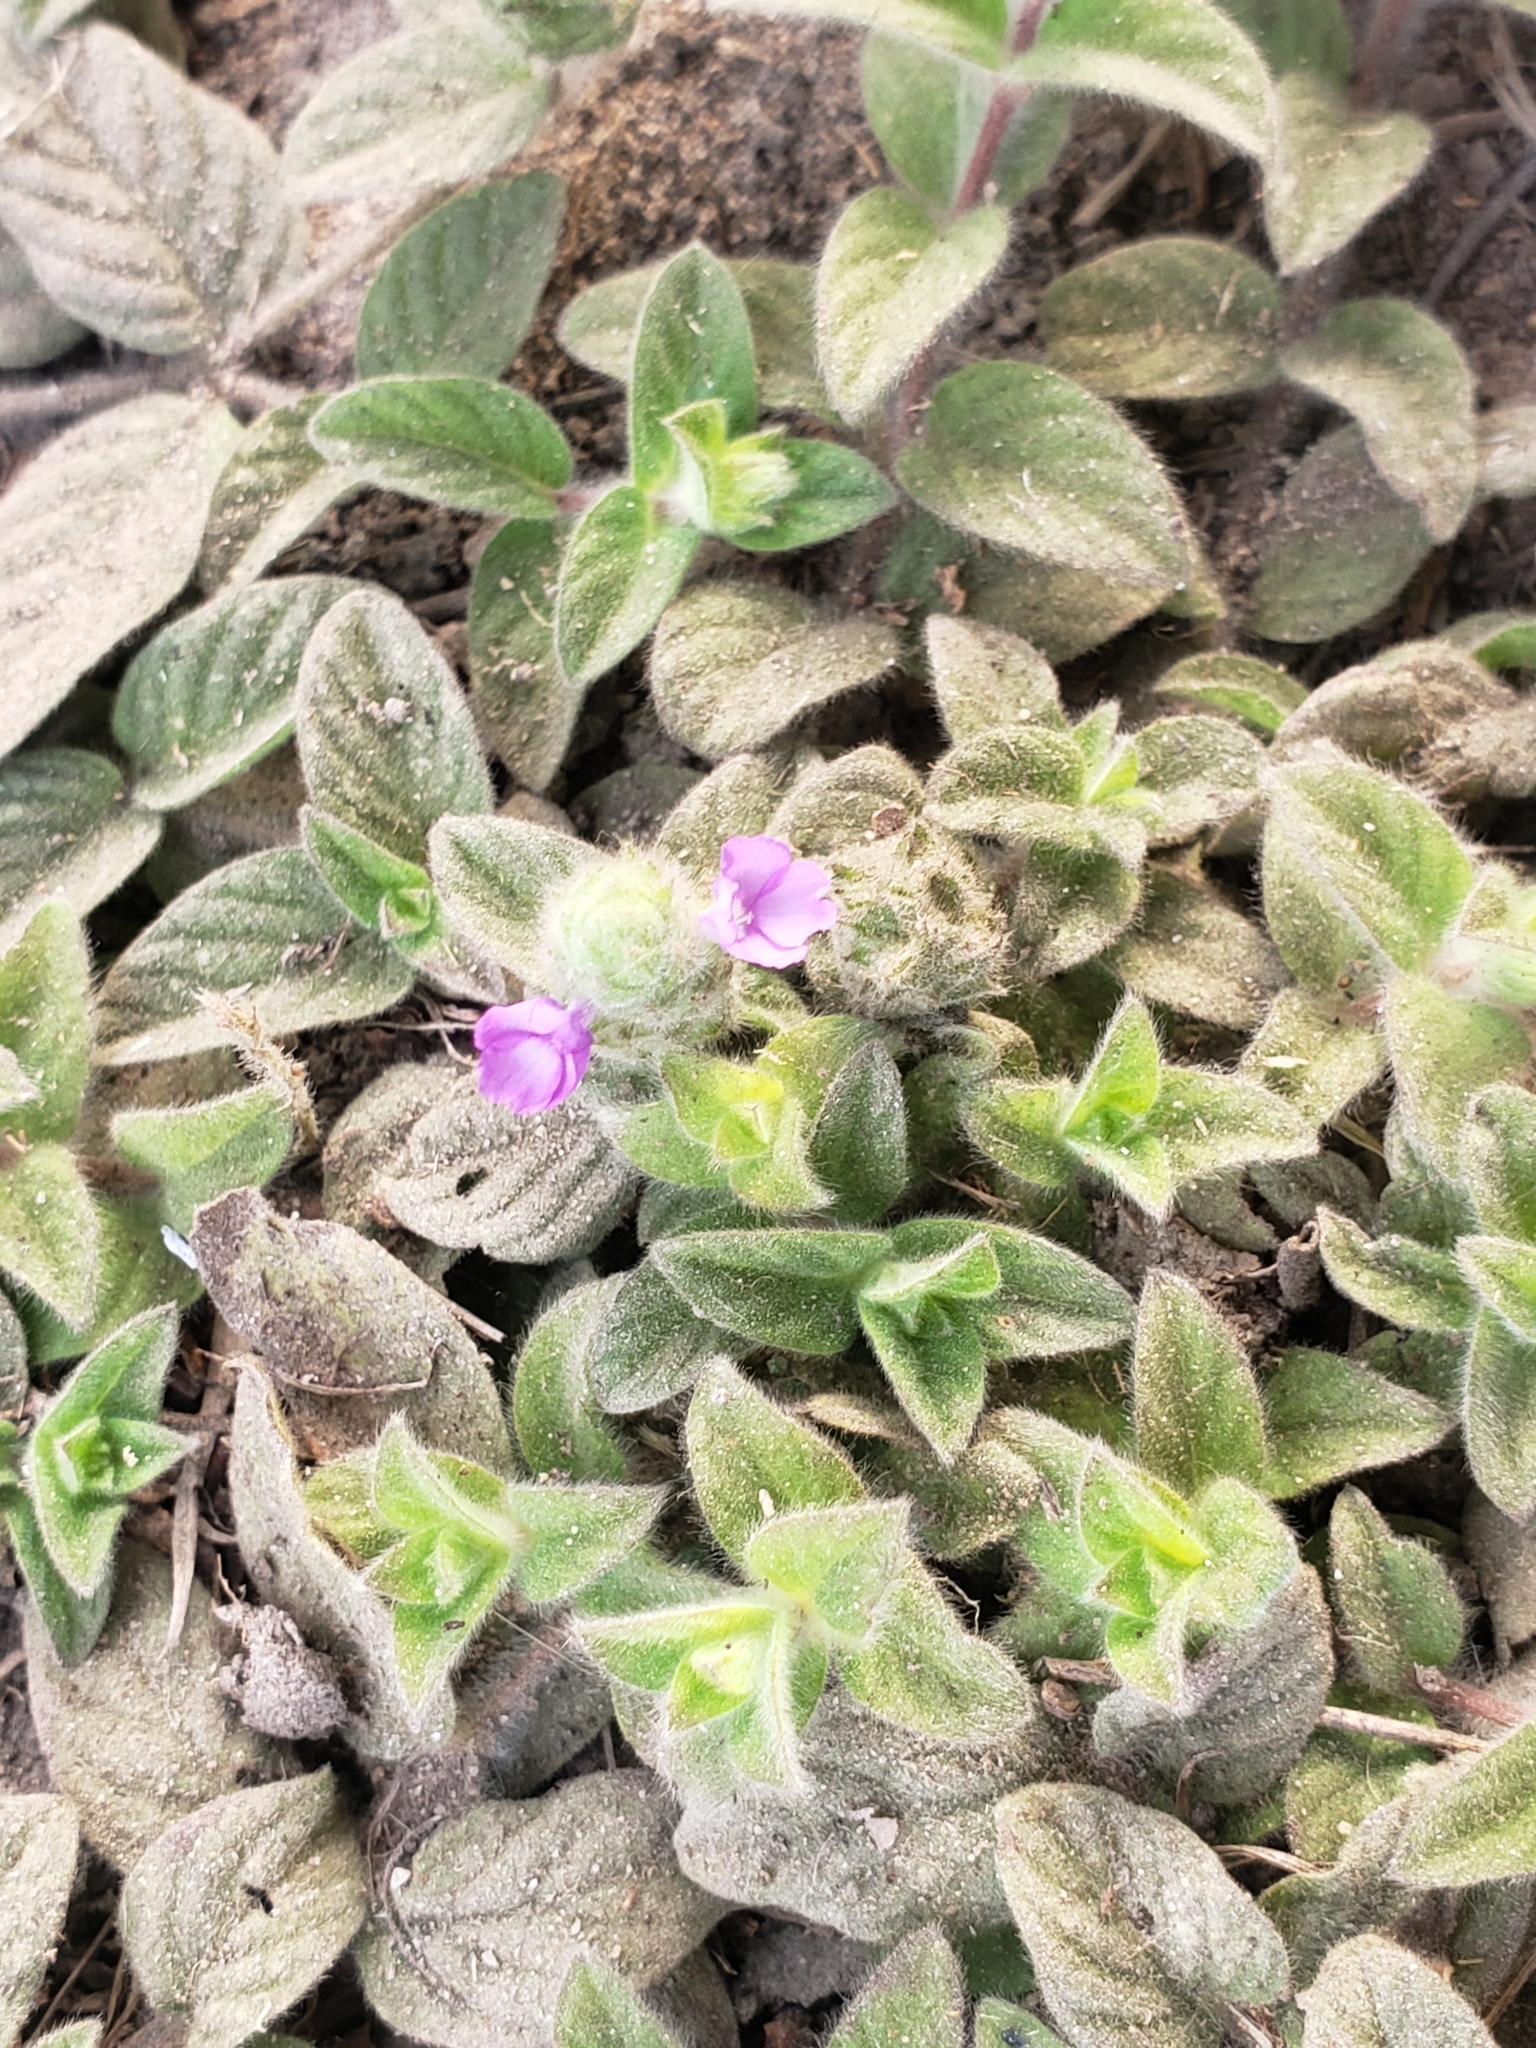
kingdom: Plantae
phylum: Tracheophyta
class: Magnoliopsida
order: Lamiales
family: Acanthaceae
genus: Nelsonia
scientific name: Nelsonia canescens
